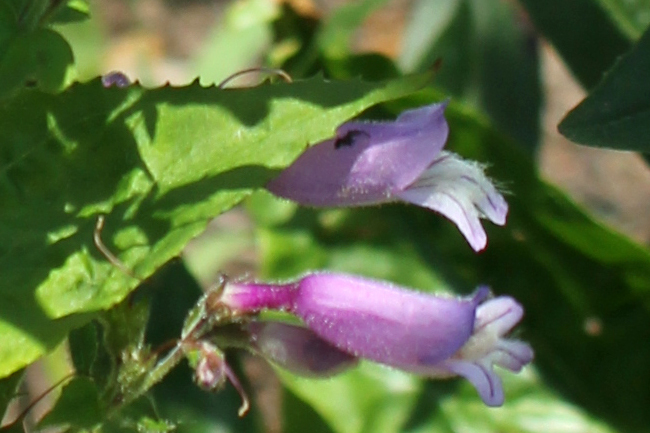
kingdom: Plantae
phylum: Tracheophyta
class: Magnoliopsida
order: Lamiales
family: Plantaginaceae
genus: Penstemon
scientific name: Penstemon hirsutus
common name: Hairy beardtongue
